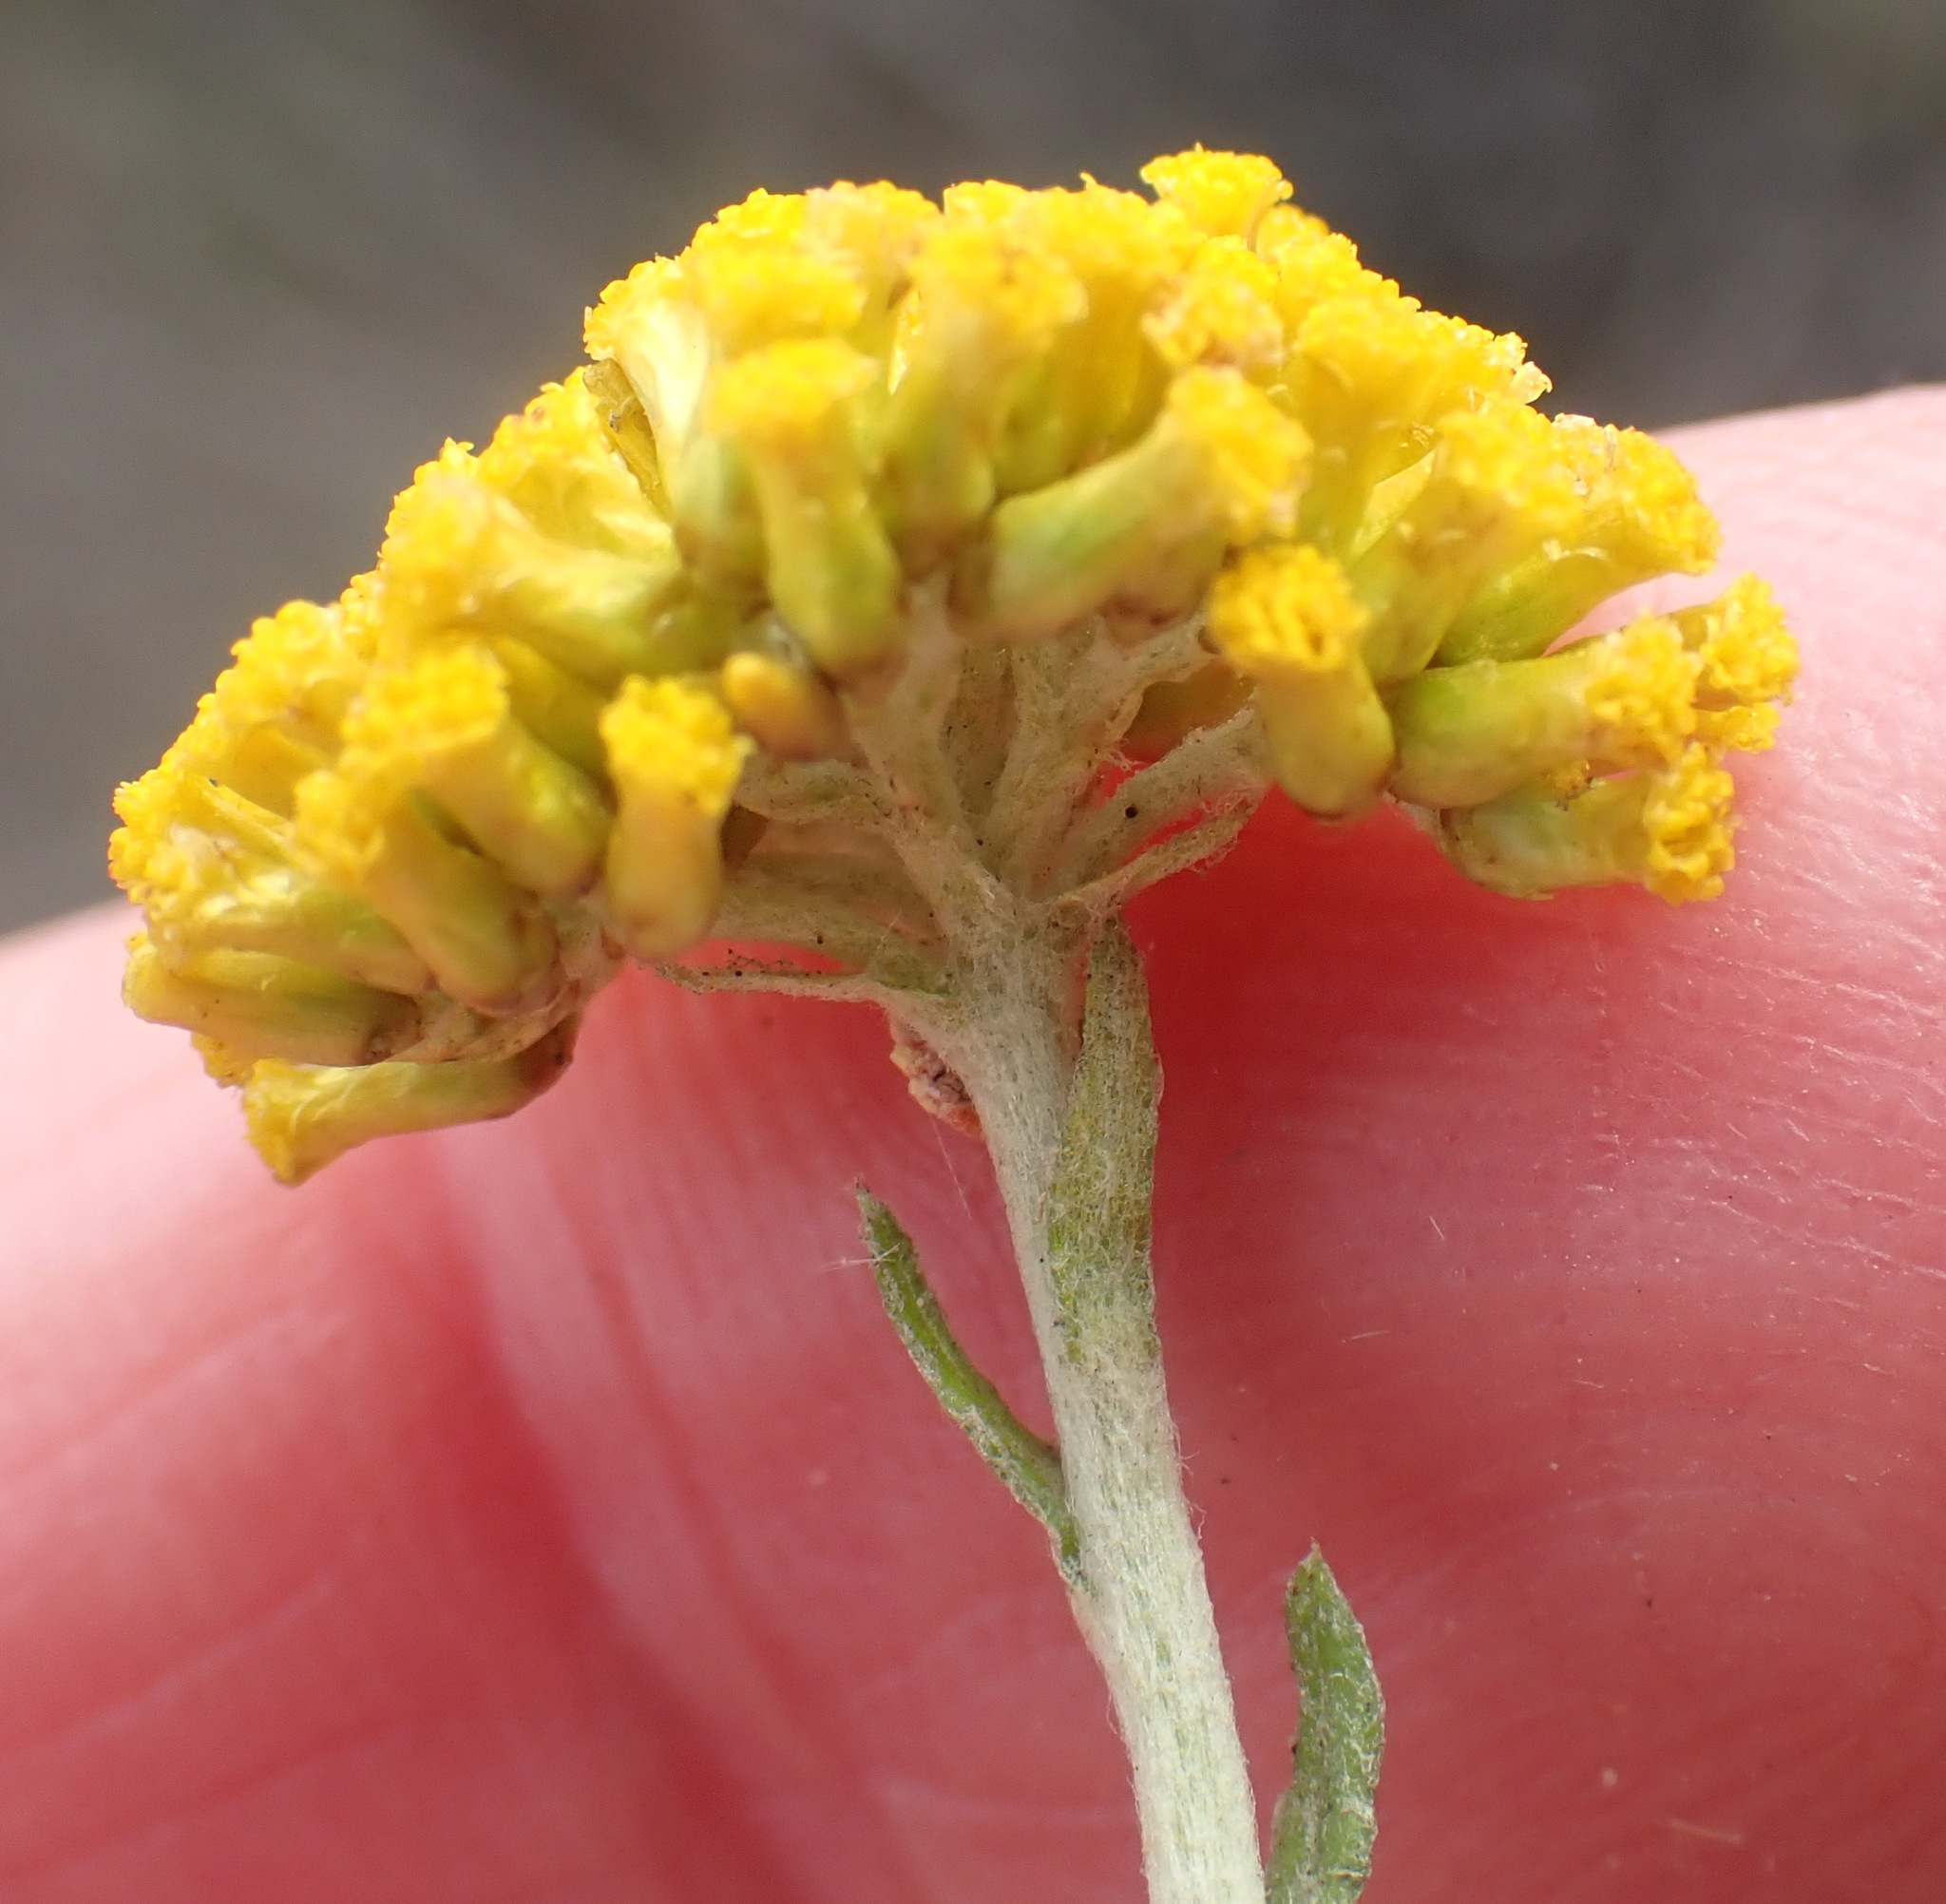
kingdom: Plantae
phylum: Tracheophyta
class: Magnoliopsida
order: Asterales
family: Asteraceae
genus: Helichrysum
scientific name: Helichrysum cymosum
